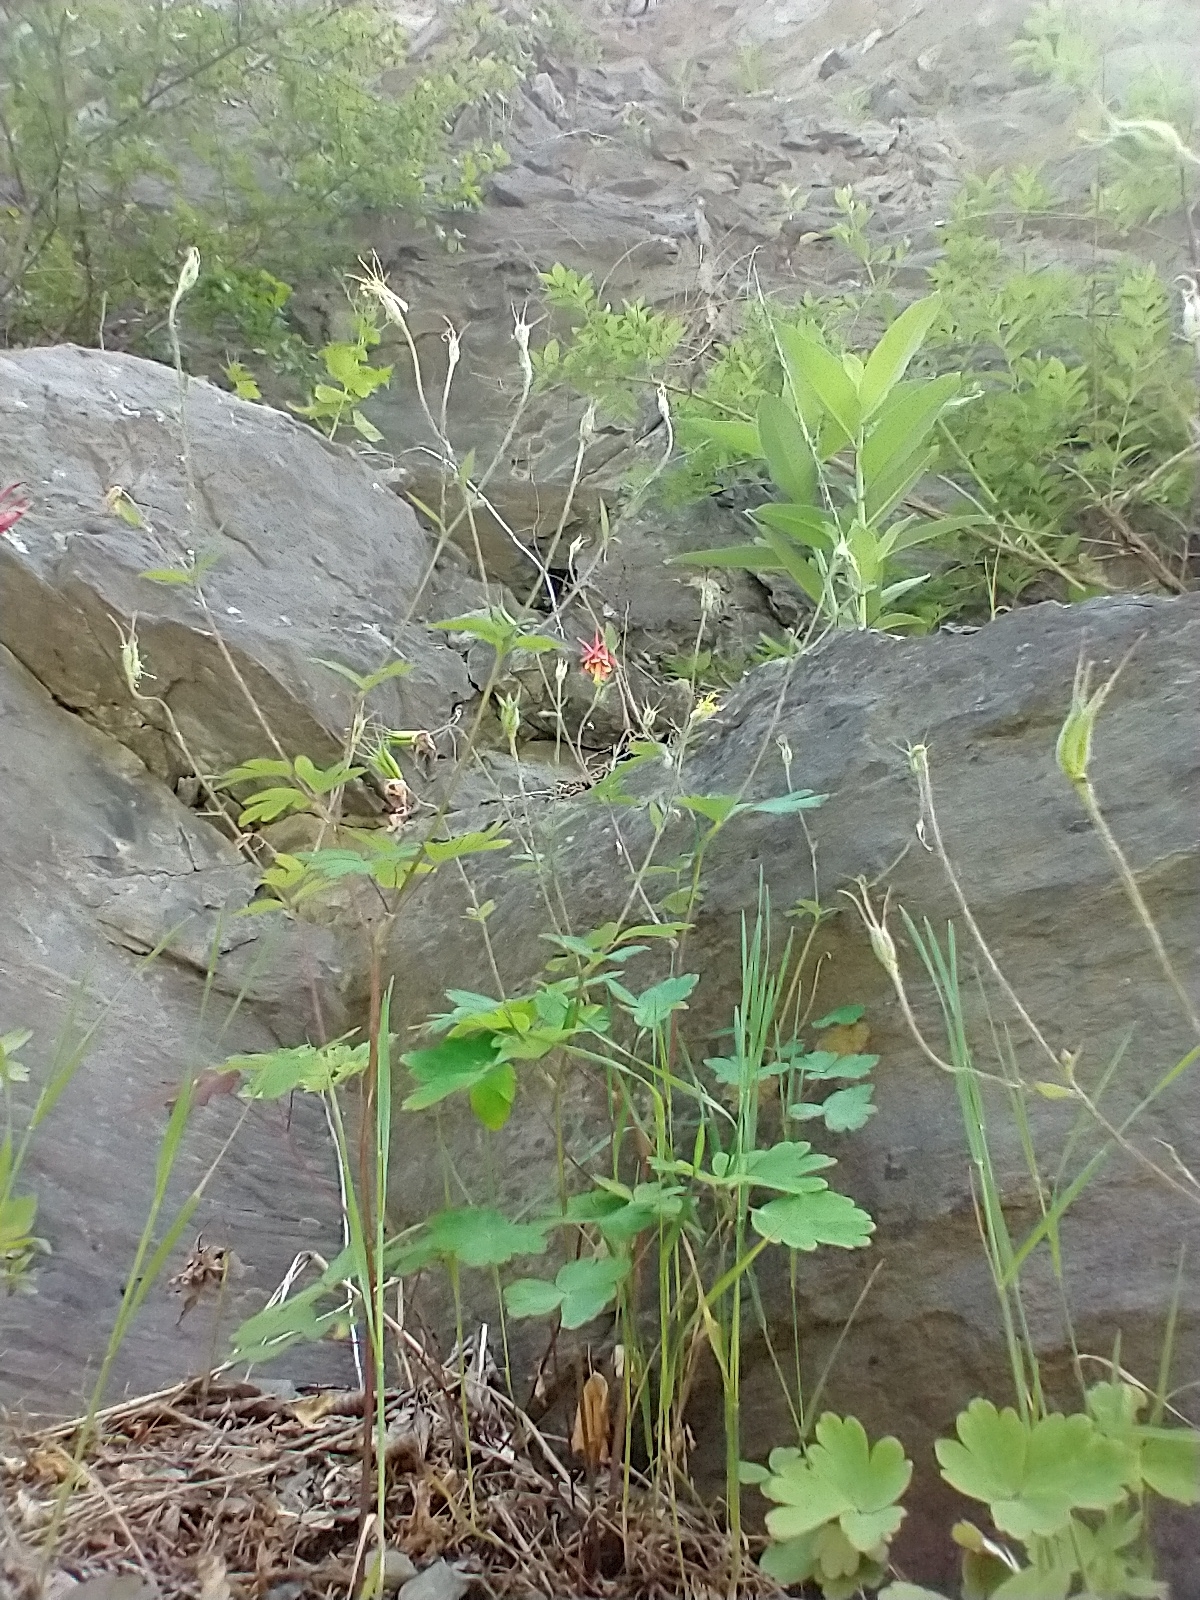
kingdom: Plantae
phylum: Tracheophyta
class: Magnoliopsida
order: Ranunculales
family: Ranunculaceae
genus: Aquilegia
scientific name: Aquilegia canadensis
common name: American columbine
